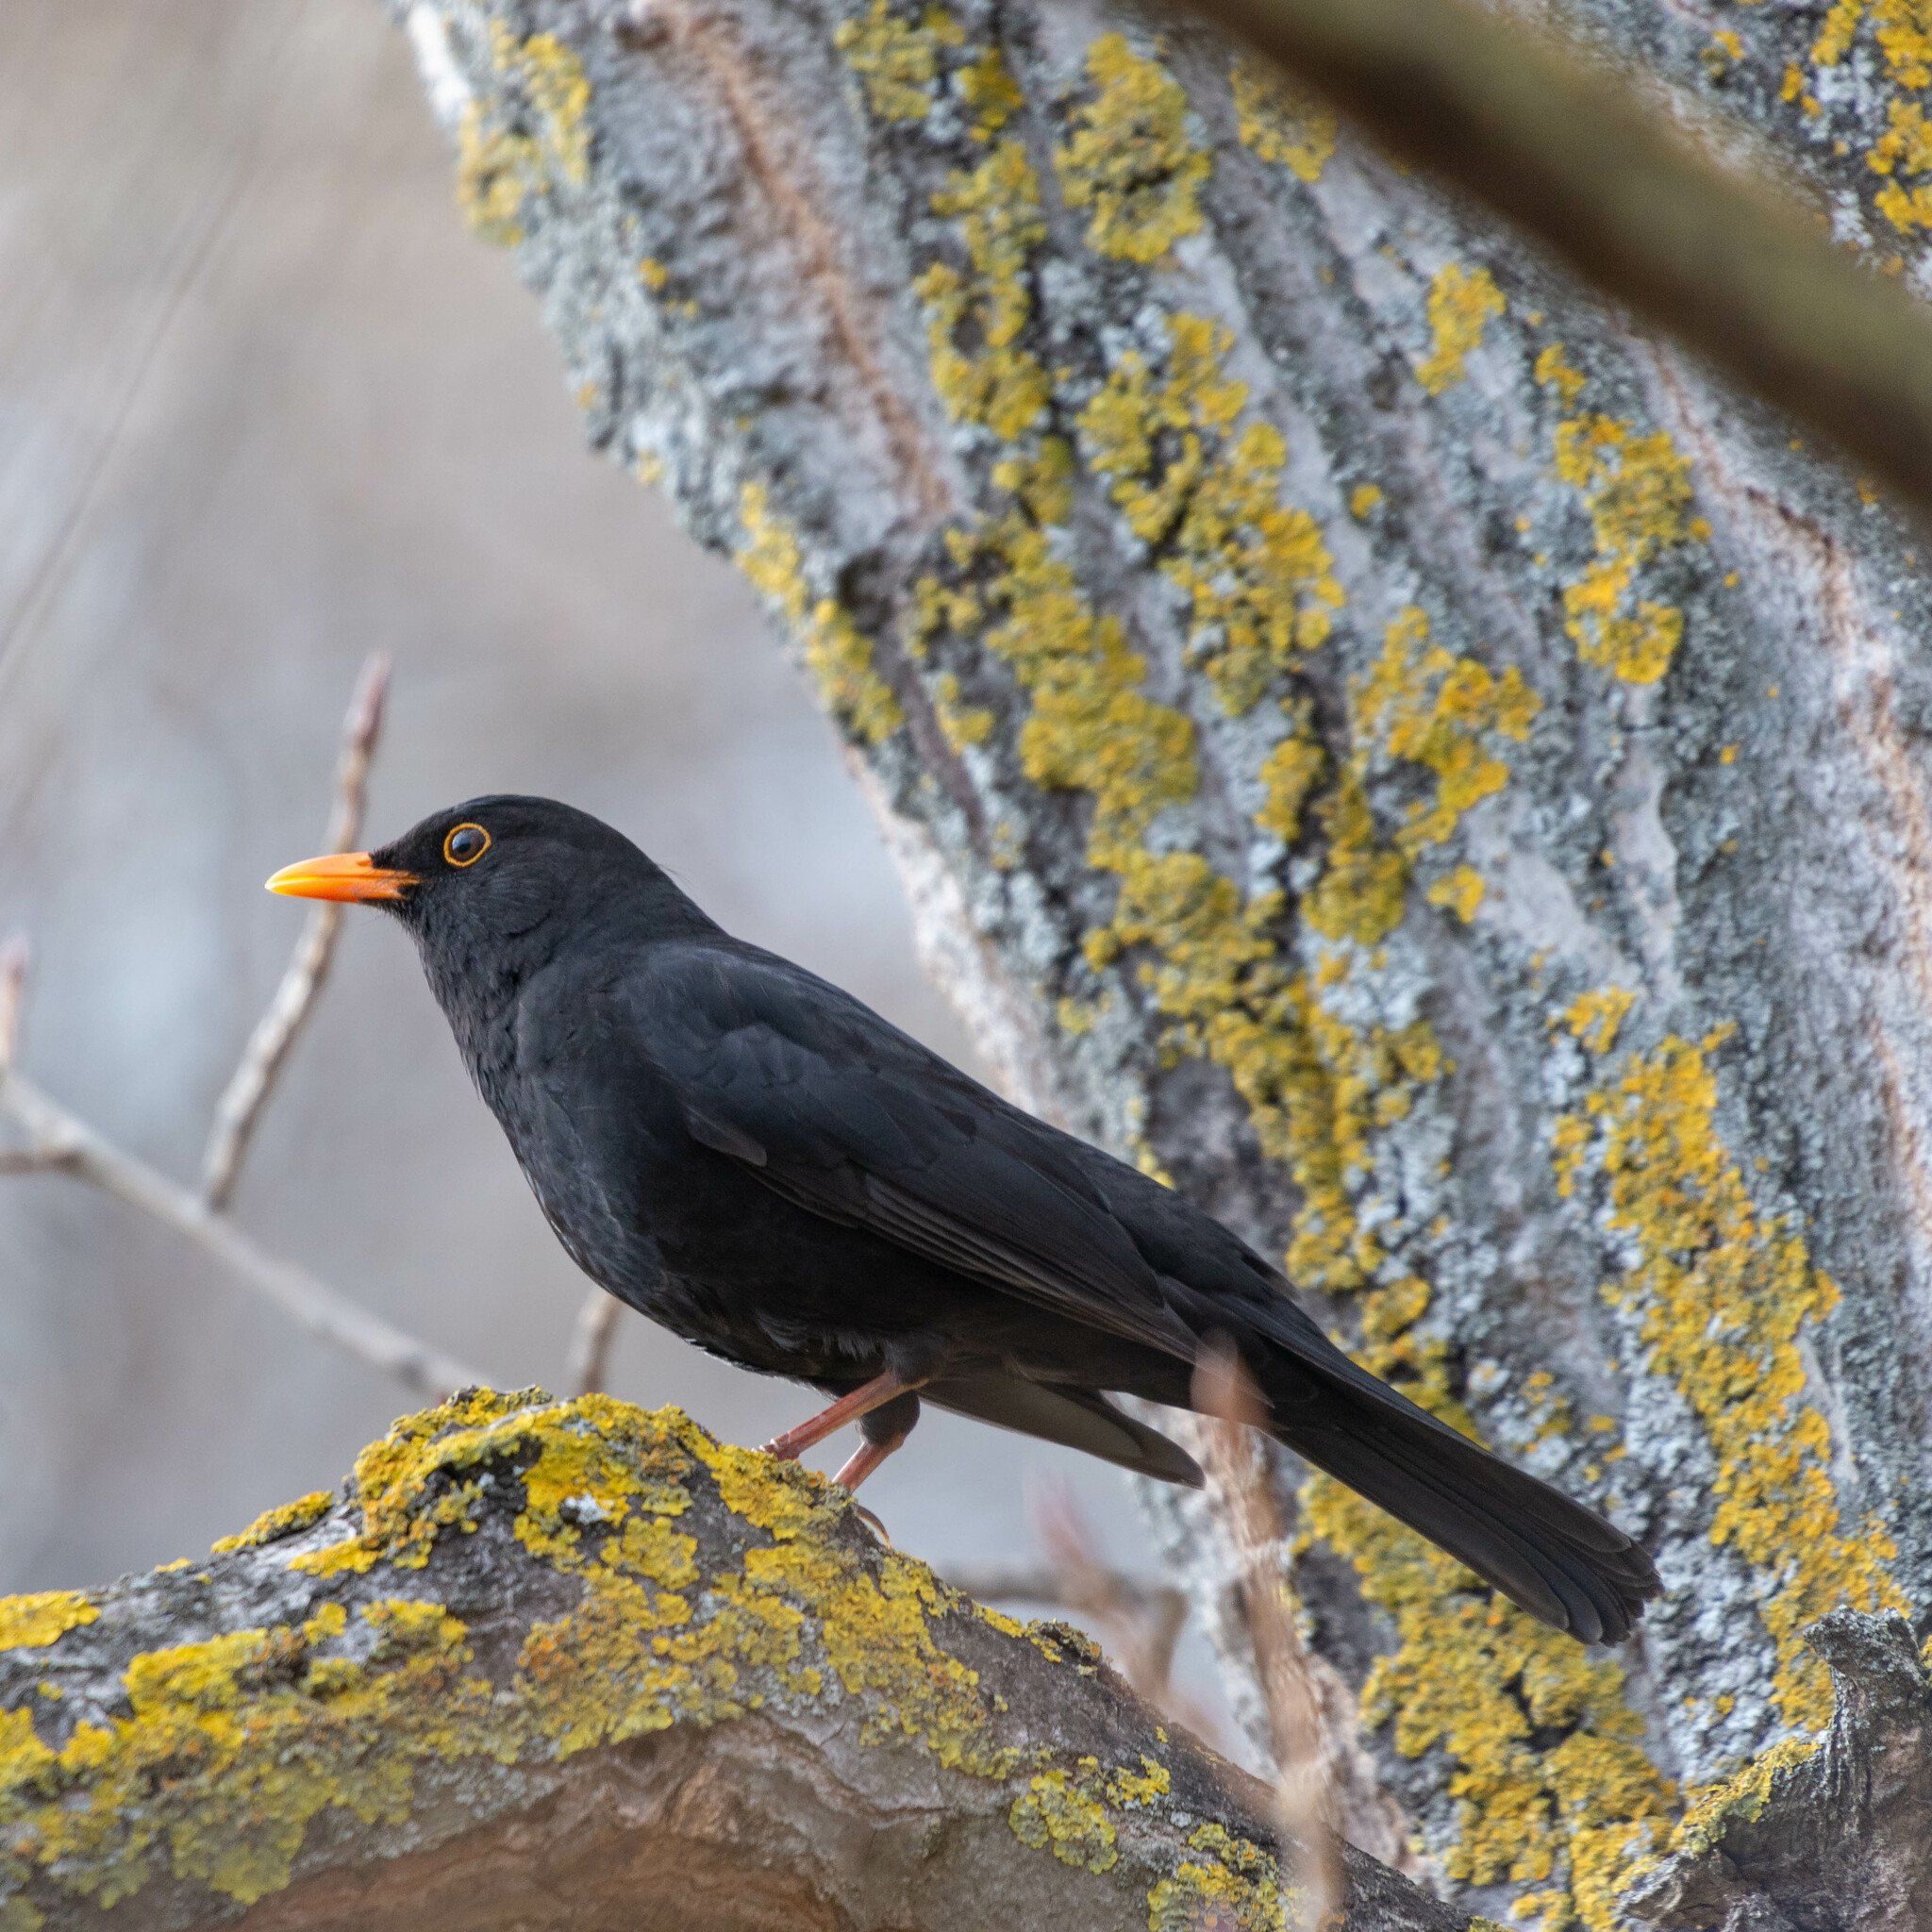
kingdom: Animalia
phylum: Chordata
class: Aves
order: Passeriformes
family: Turdidae
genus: Turdus
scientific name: Turdus merula
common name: Common blackbird
